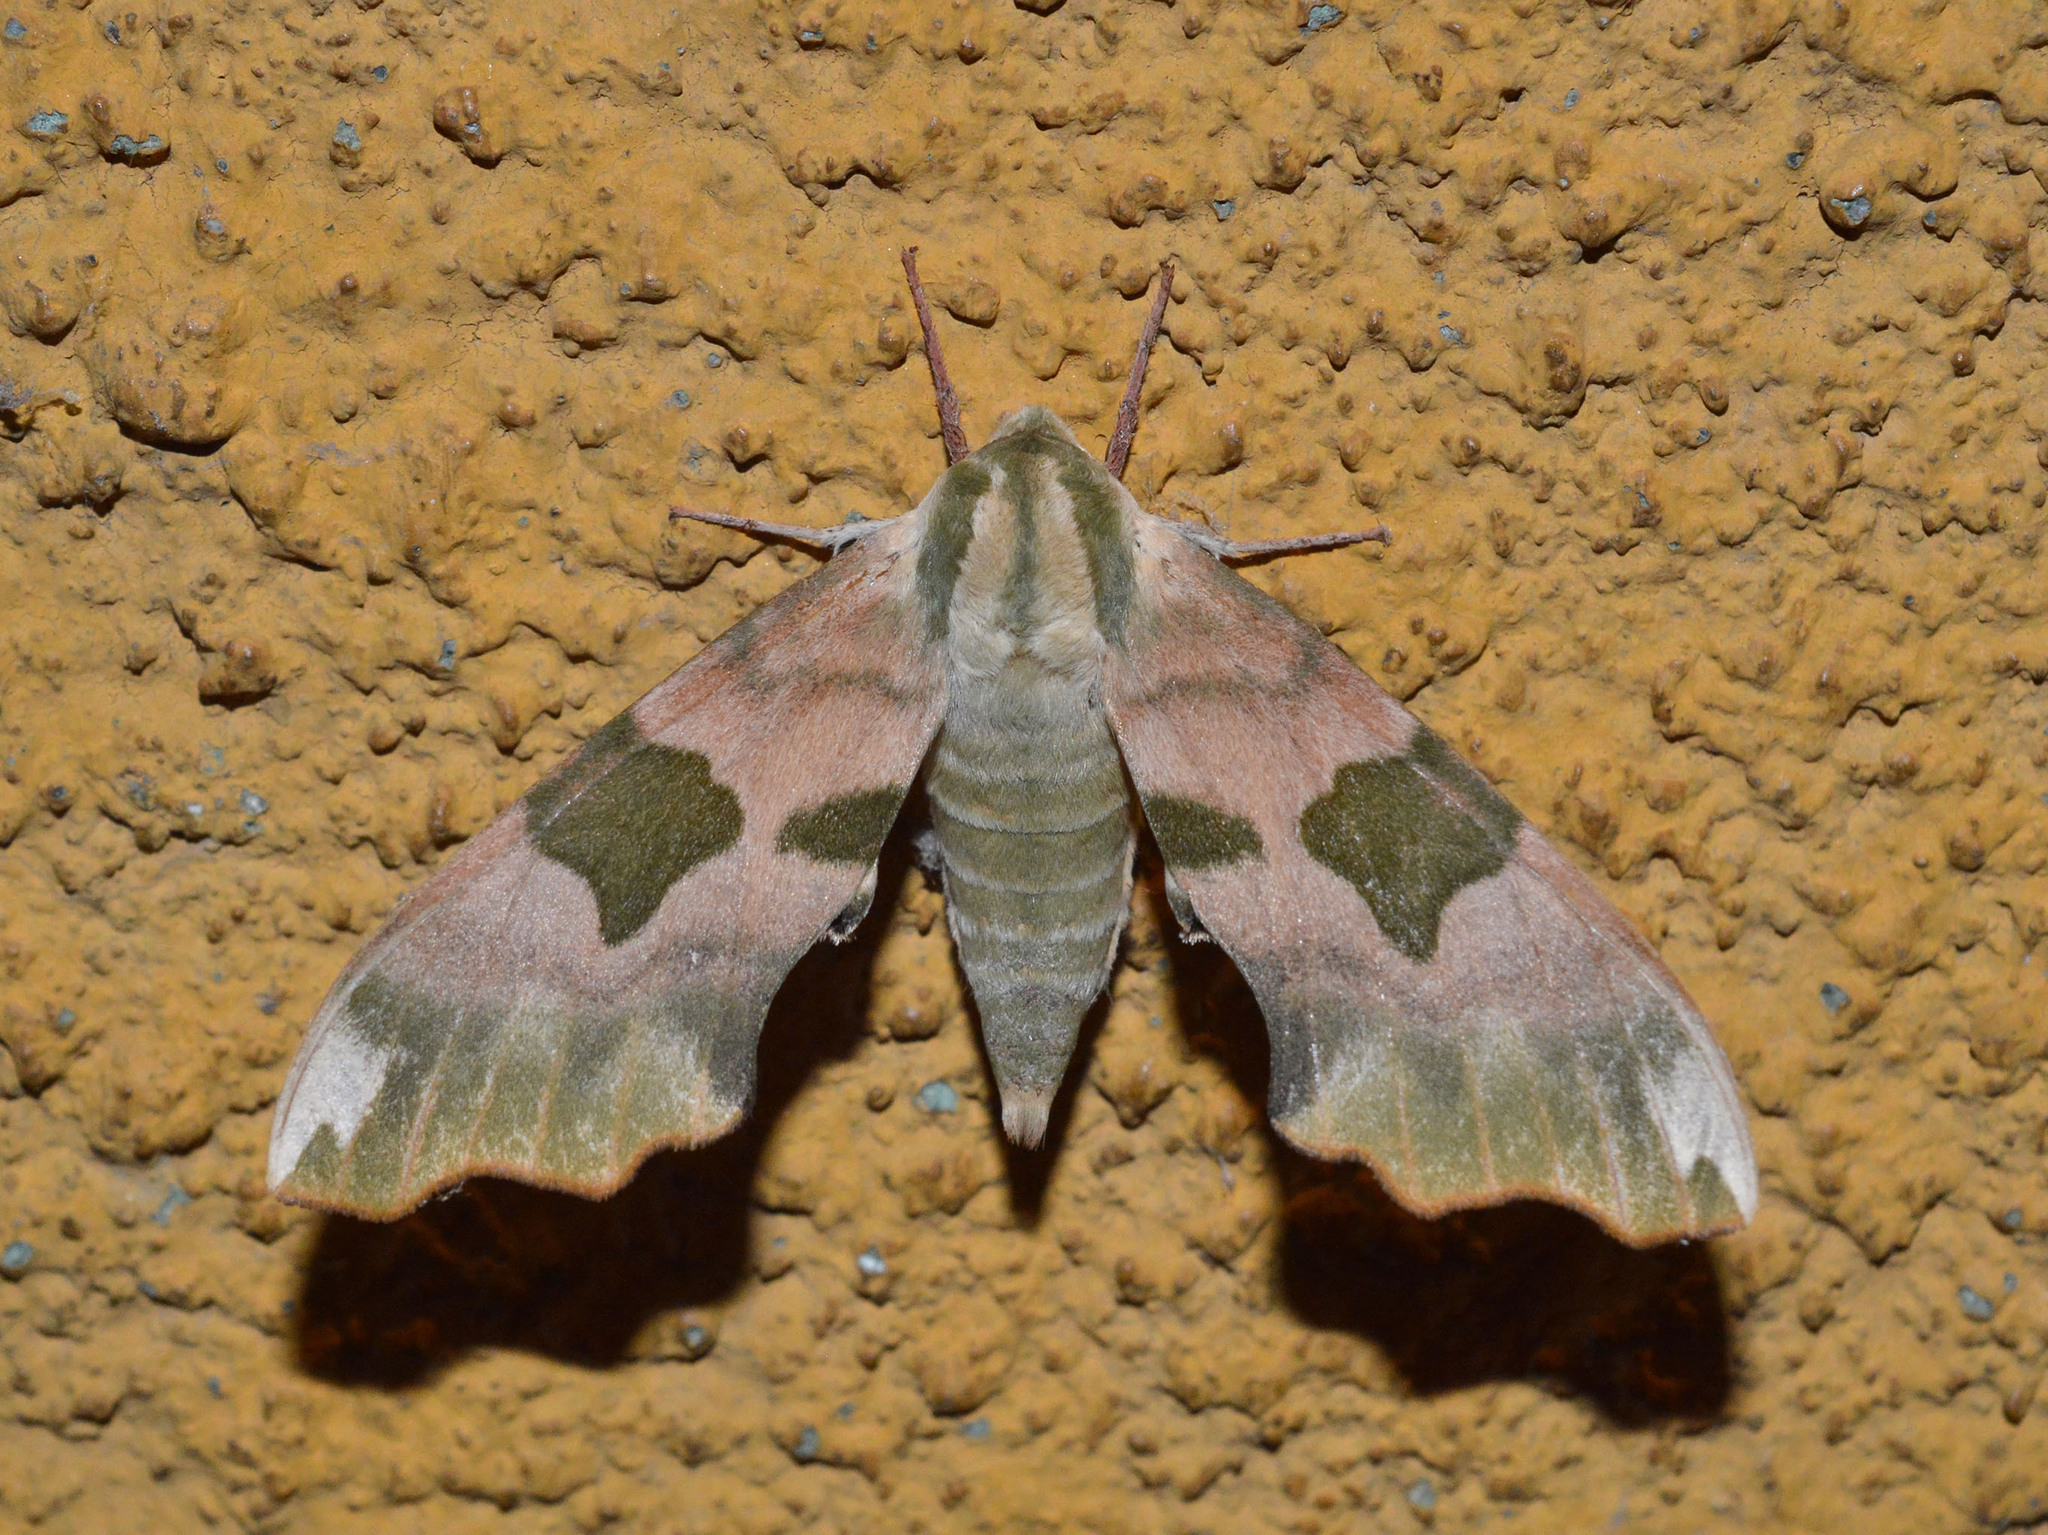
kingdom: Animalia
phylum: Arthropoda
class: Insecta
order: Lepidoptera
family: Sphingidae
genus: Mimas
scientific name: Mimas tiliae
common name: Lime hawk-moth
